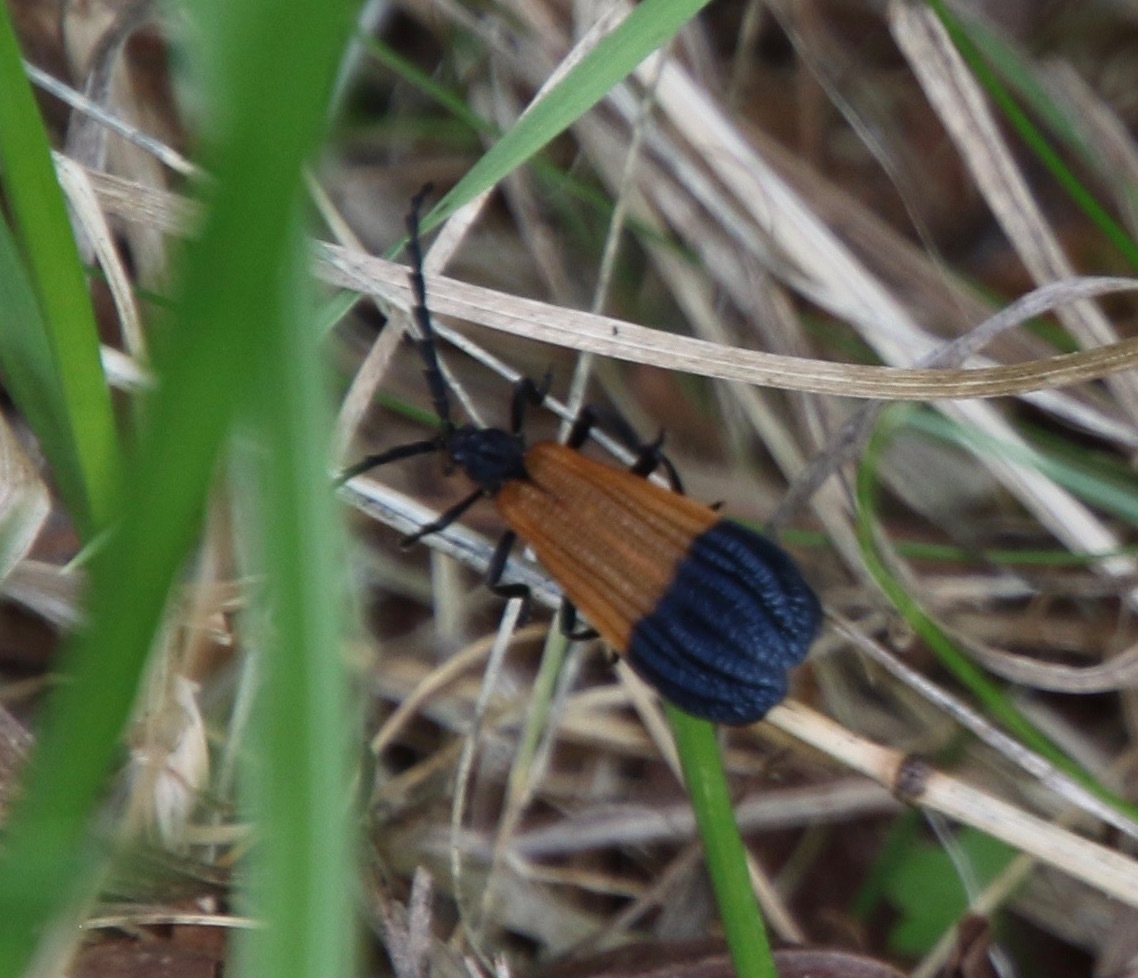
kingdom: Animalia
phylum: Arthropoda
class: Insecta
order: Coleoptera
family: Lycidae
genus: Calopteron
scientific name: Calopteron terminale
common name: End band net-winged beetle
